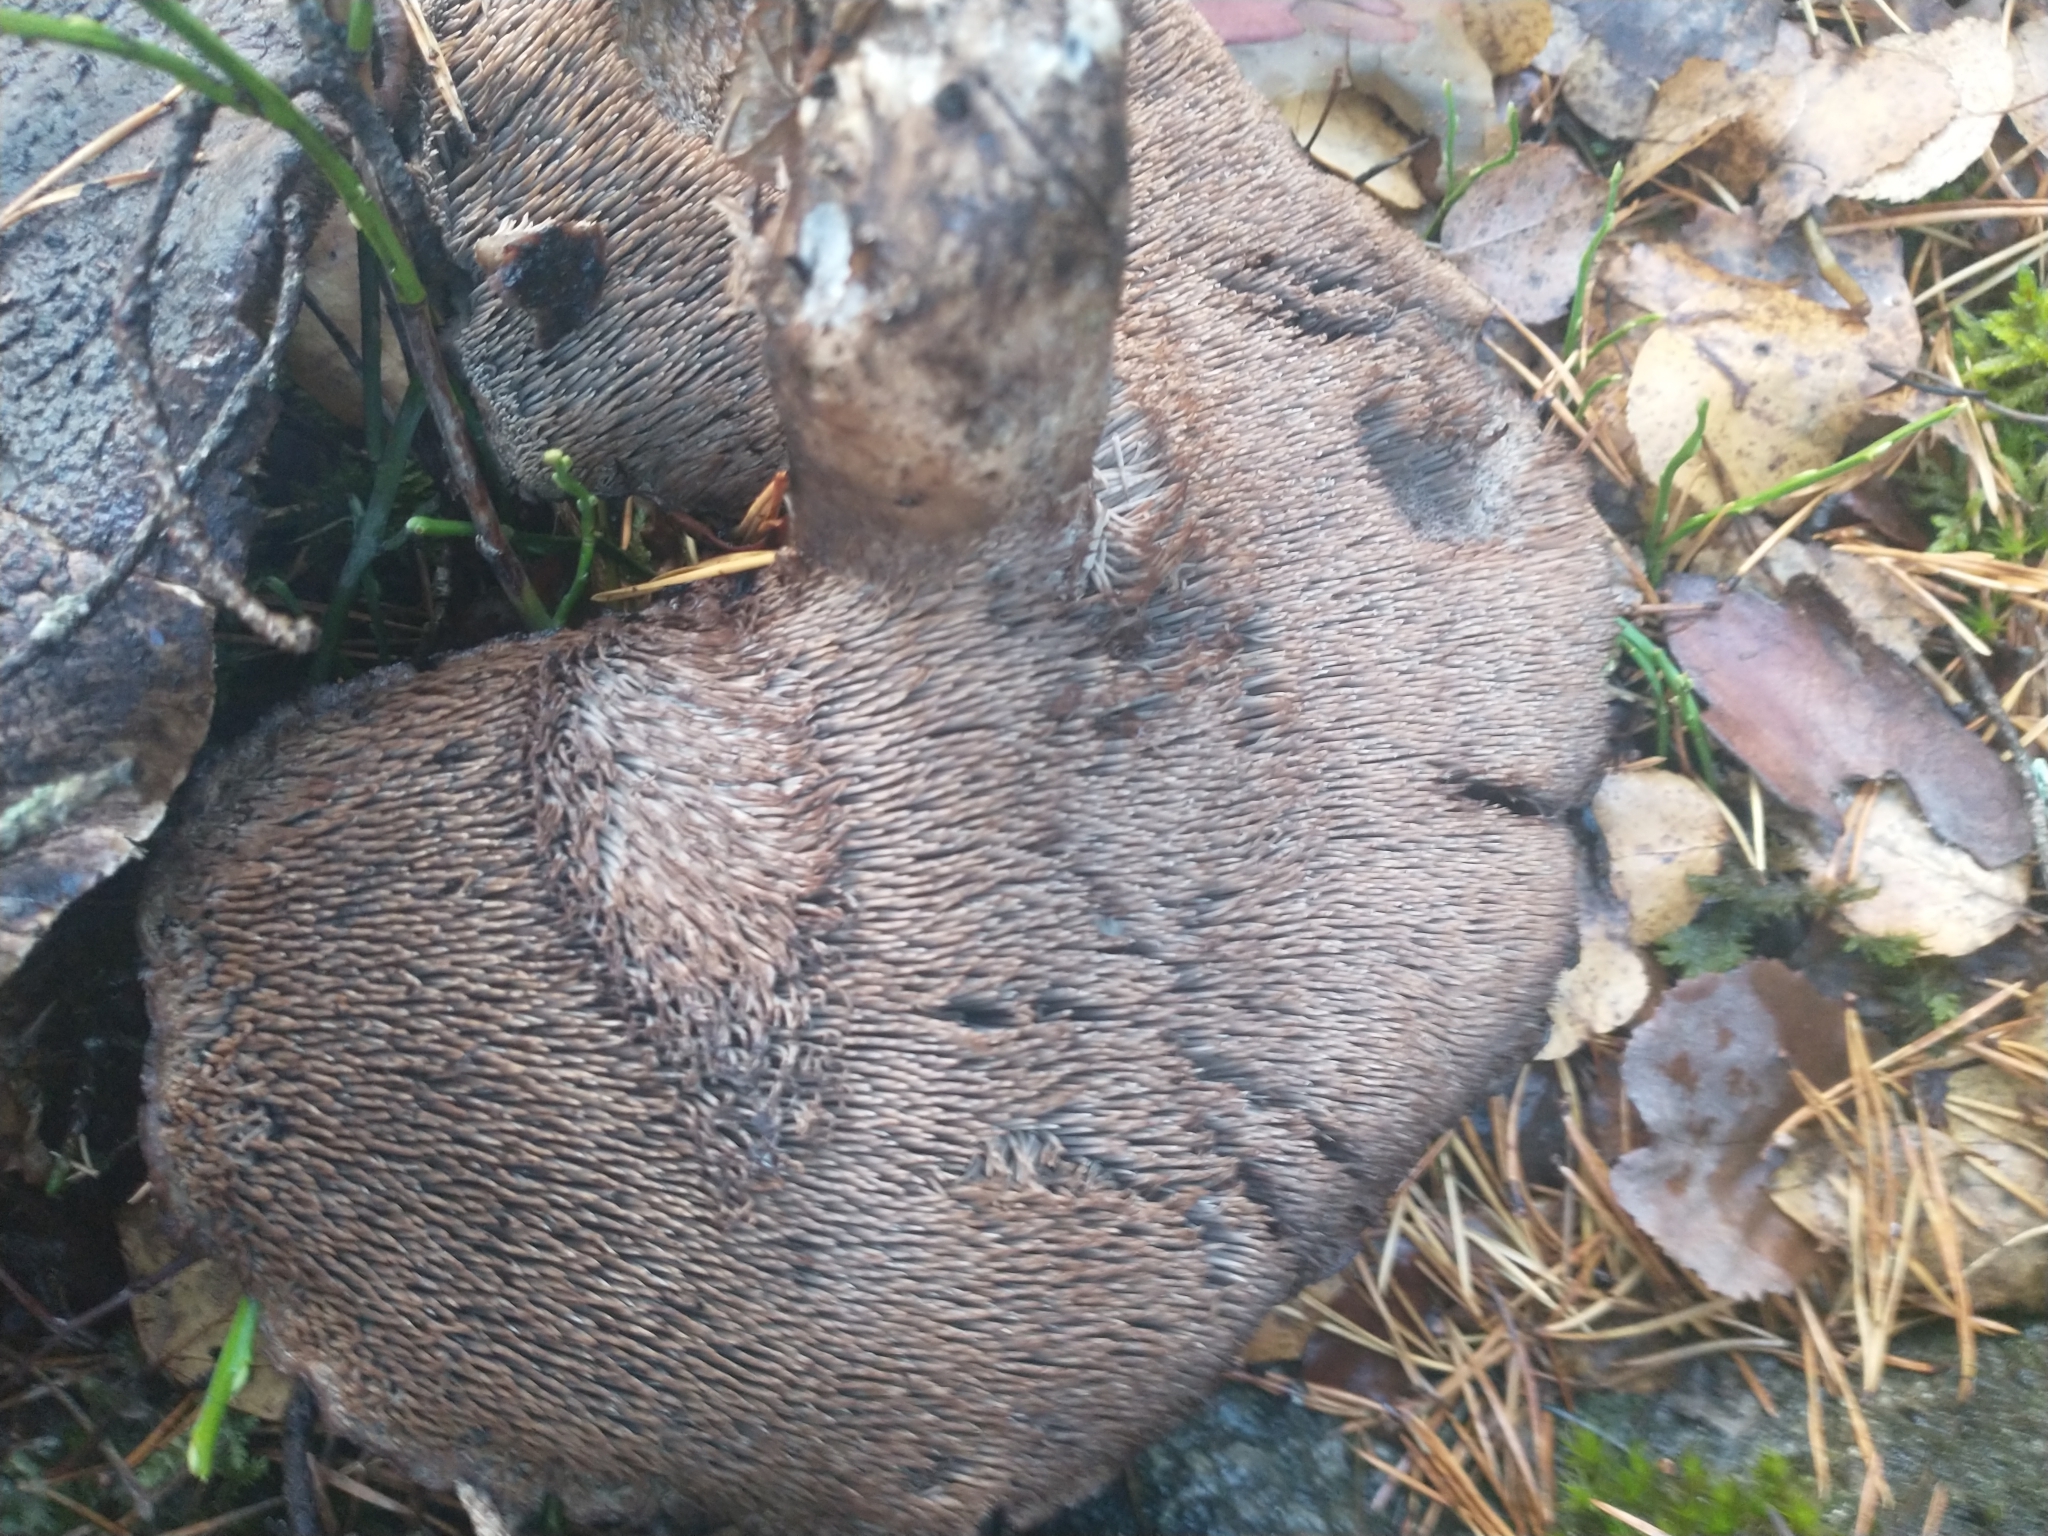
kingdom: Fungi
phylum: Basidiomycota
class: Agaricomycetes
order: Thelephorales
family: Bankeraceae
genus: Sarcodon
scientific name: Sarcodon squamosus
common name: Scaly tooth
